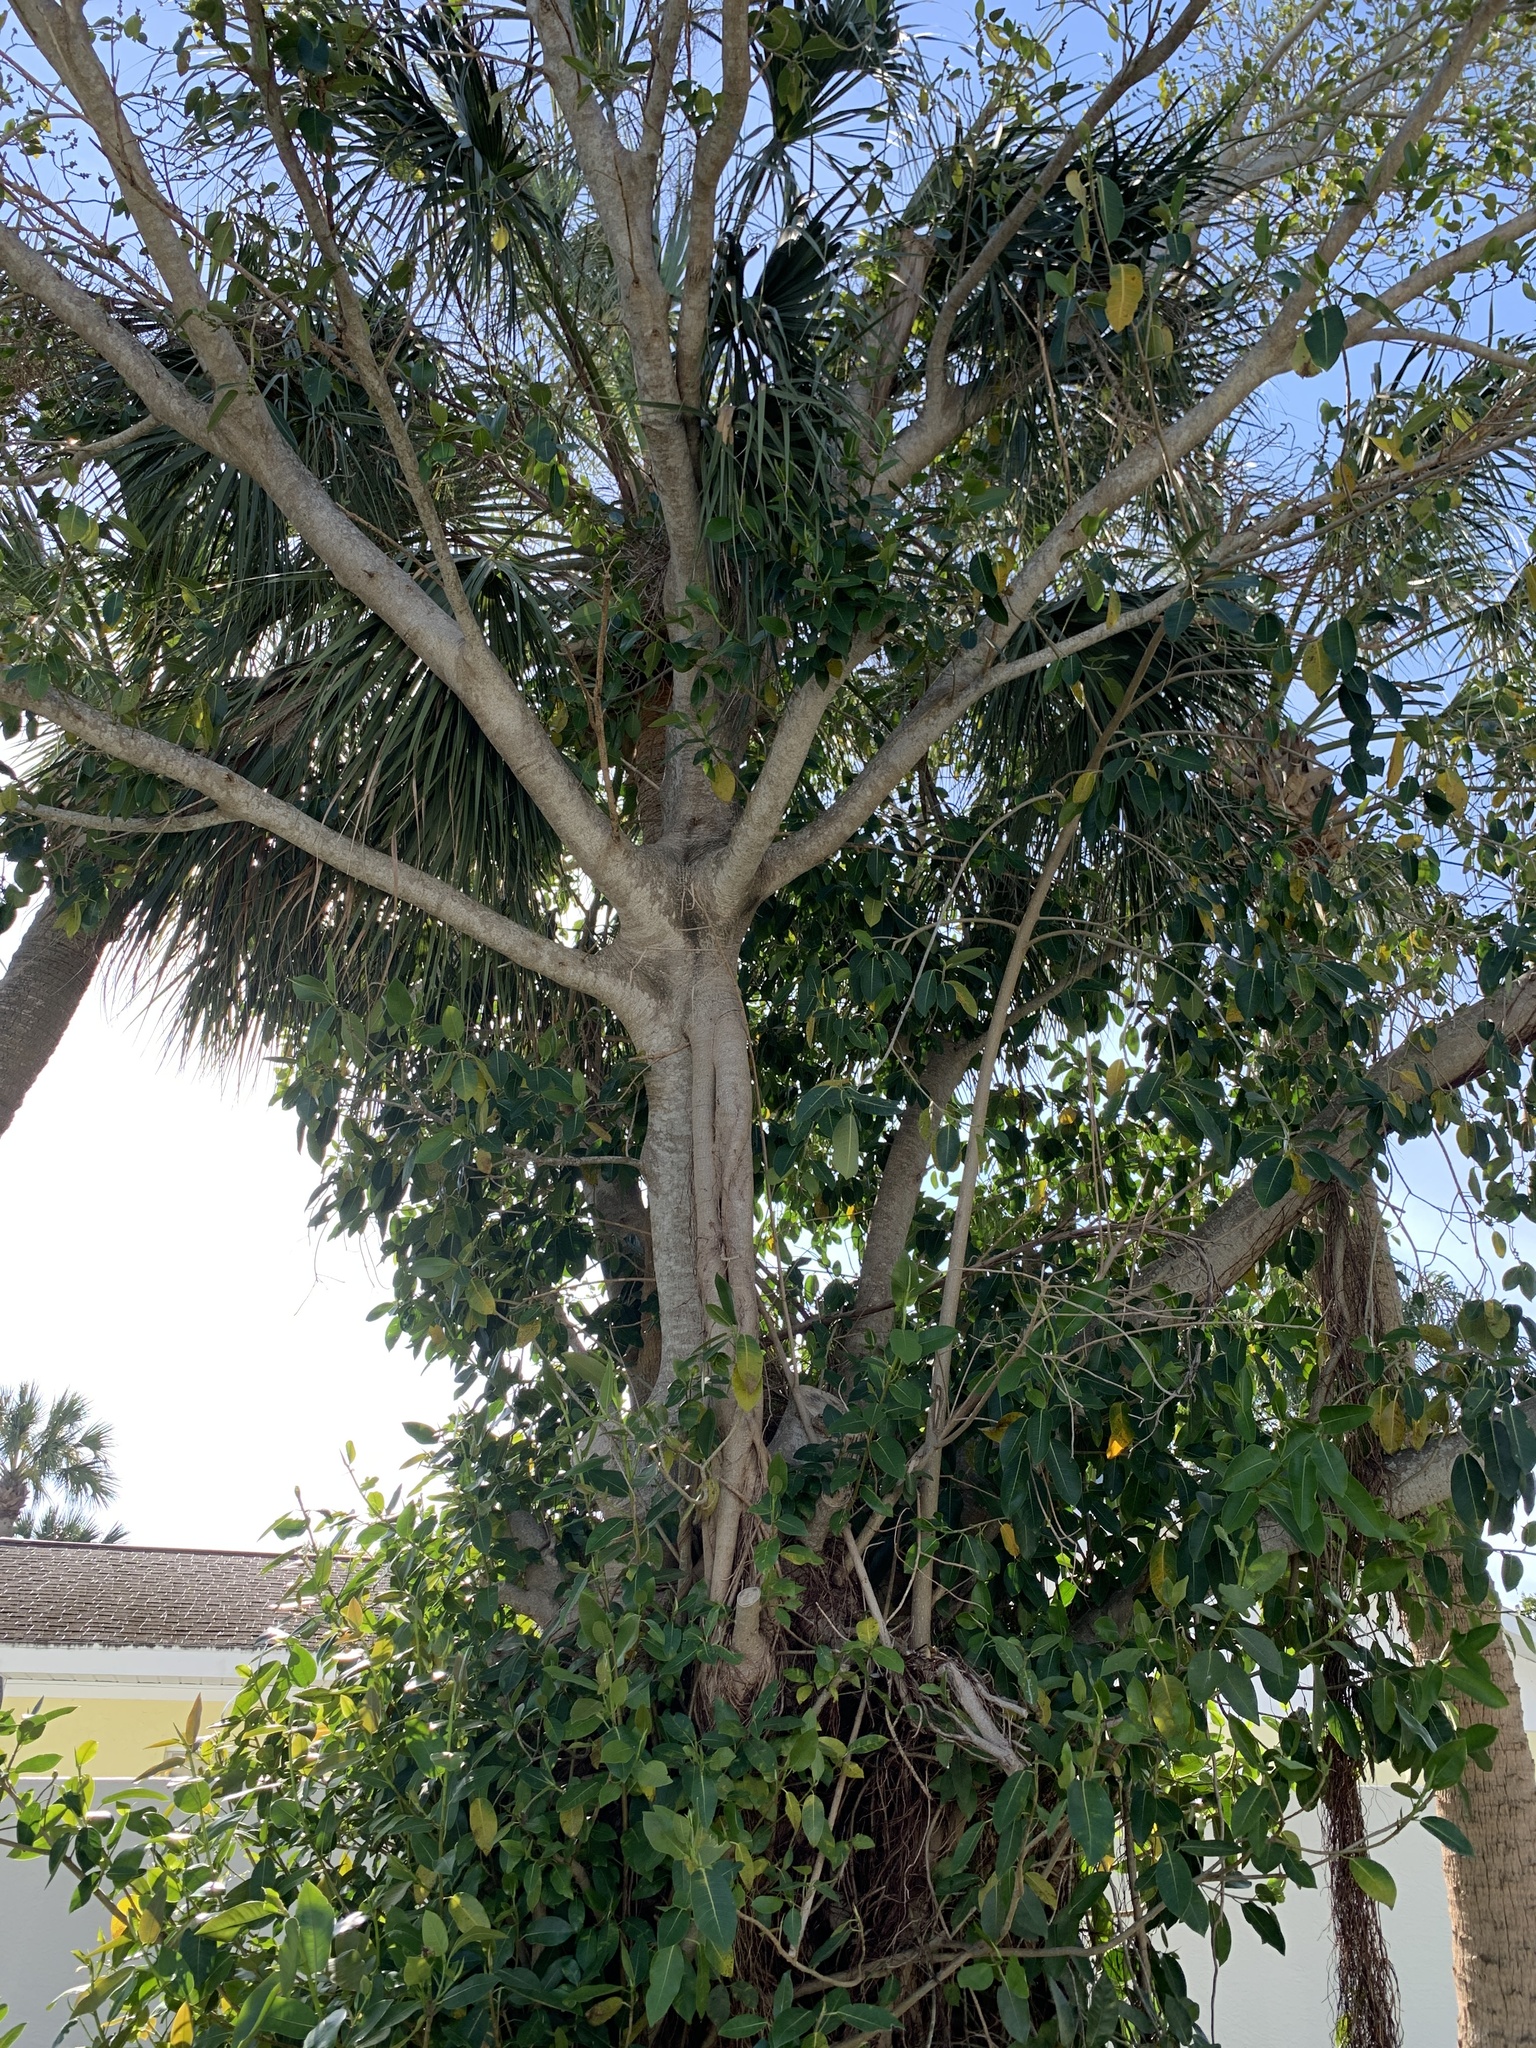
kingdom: Plantae
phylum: Tracheophyta
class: Magnoliopsida
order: Rosales
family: Moraceae
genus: Ficus
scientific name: Ficus aurea
